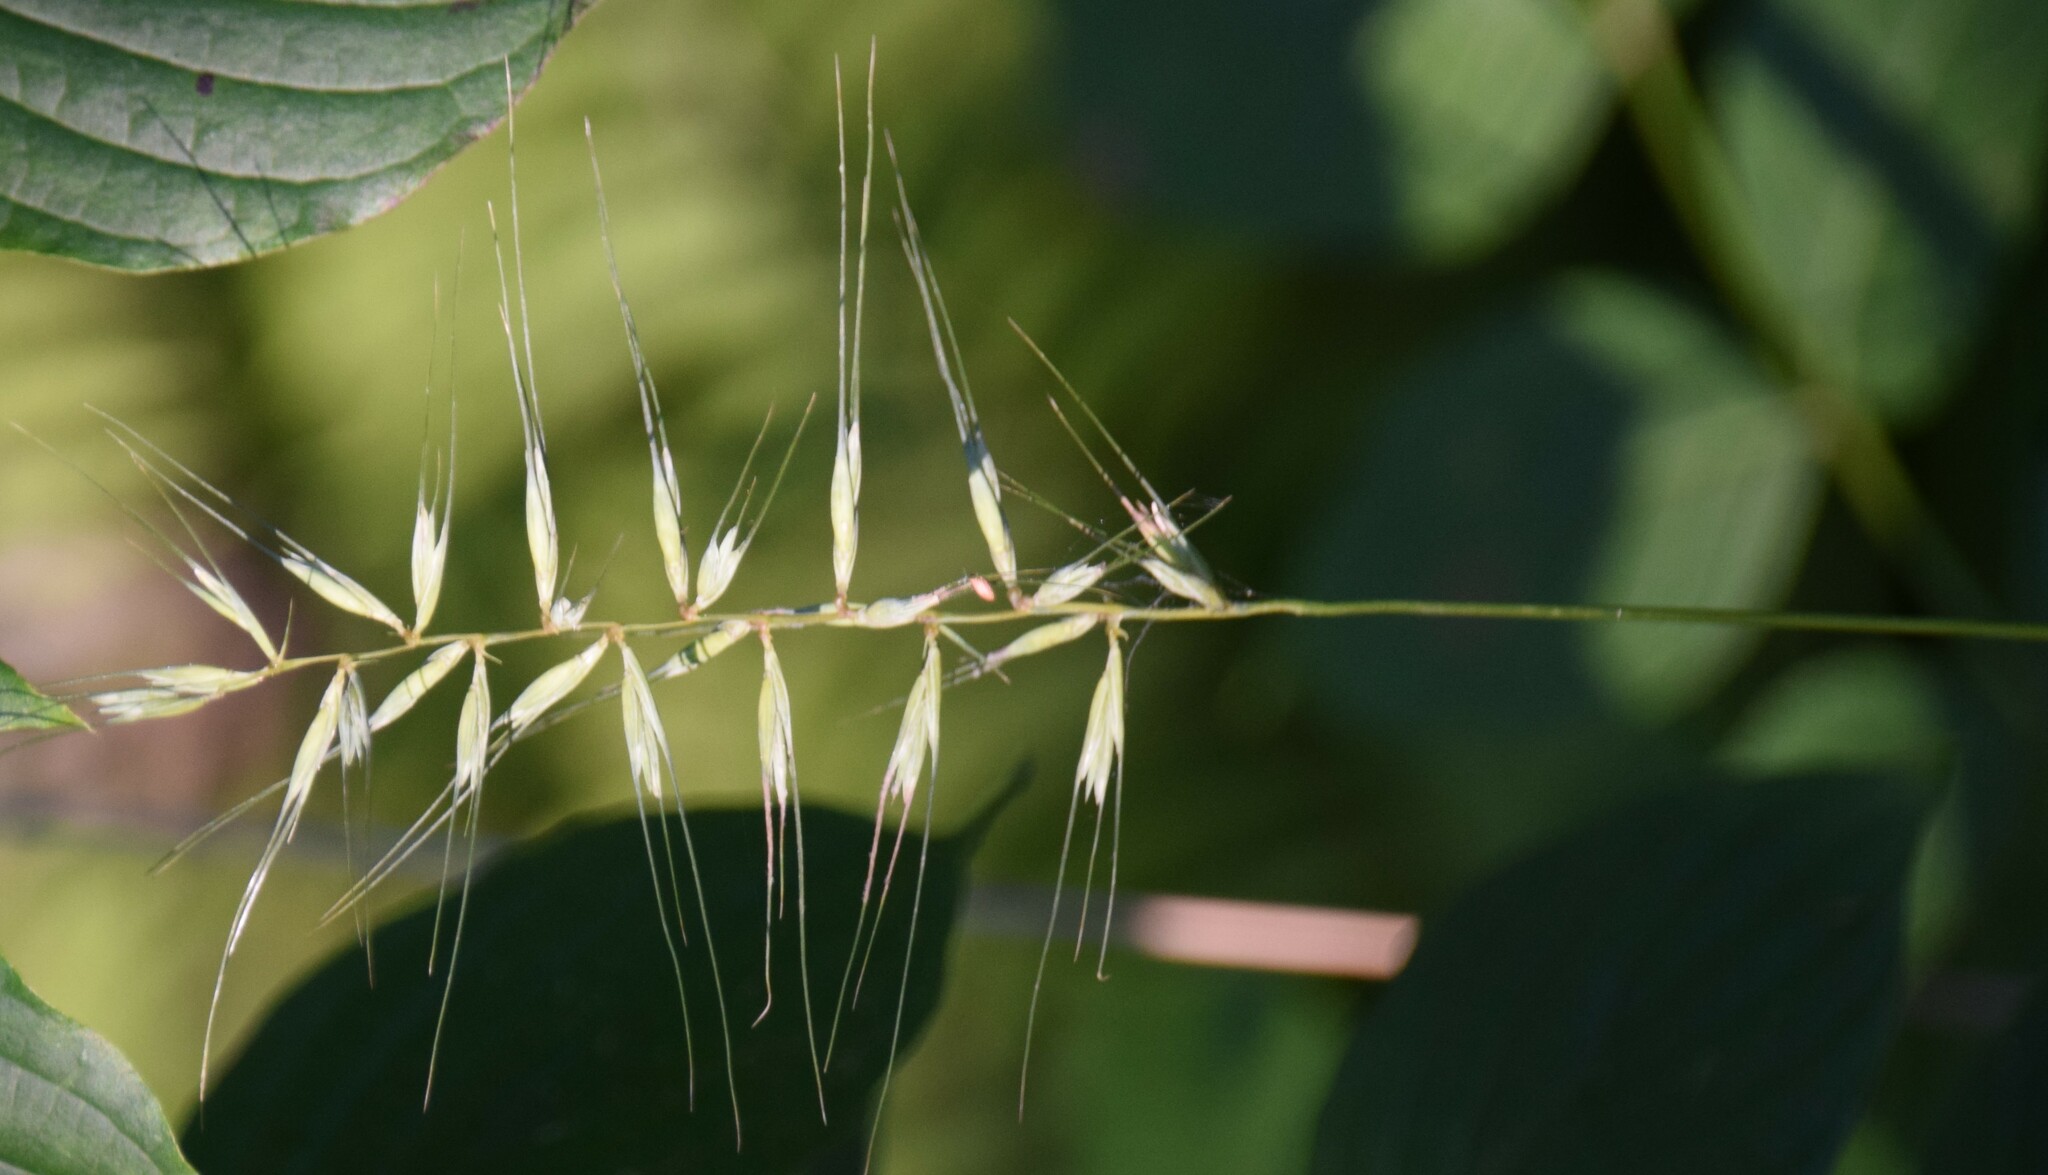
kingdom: Plantae
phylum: Tracheophyta
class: Liliopsida
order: Poales
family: Poaceae
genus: Elymus
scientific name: Elymus hystrix
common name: Bottlebrush grass
